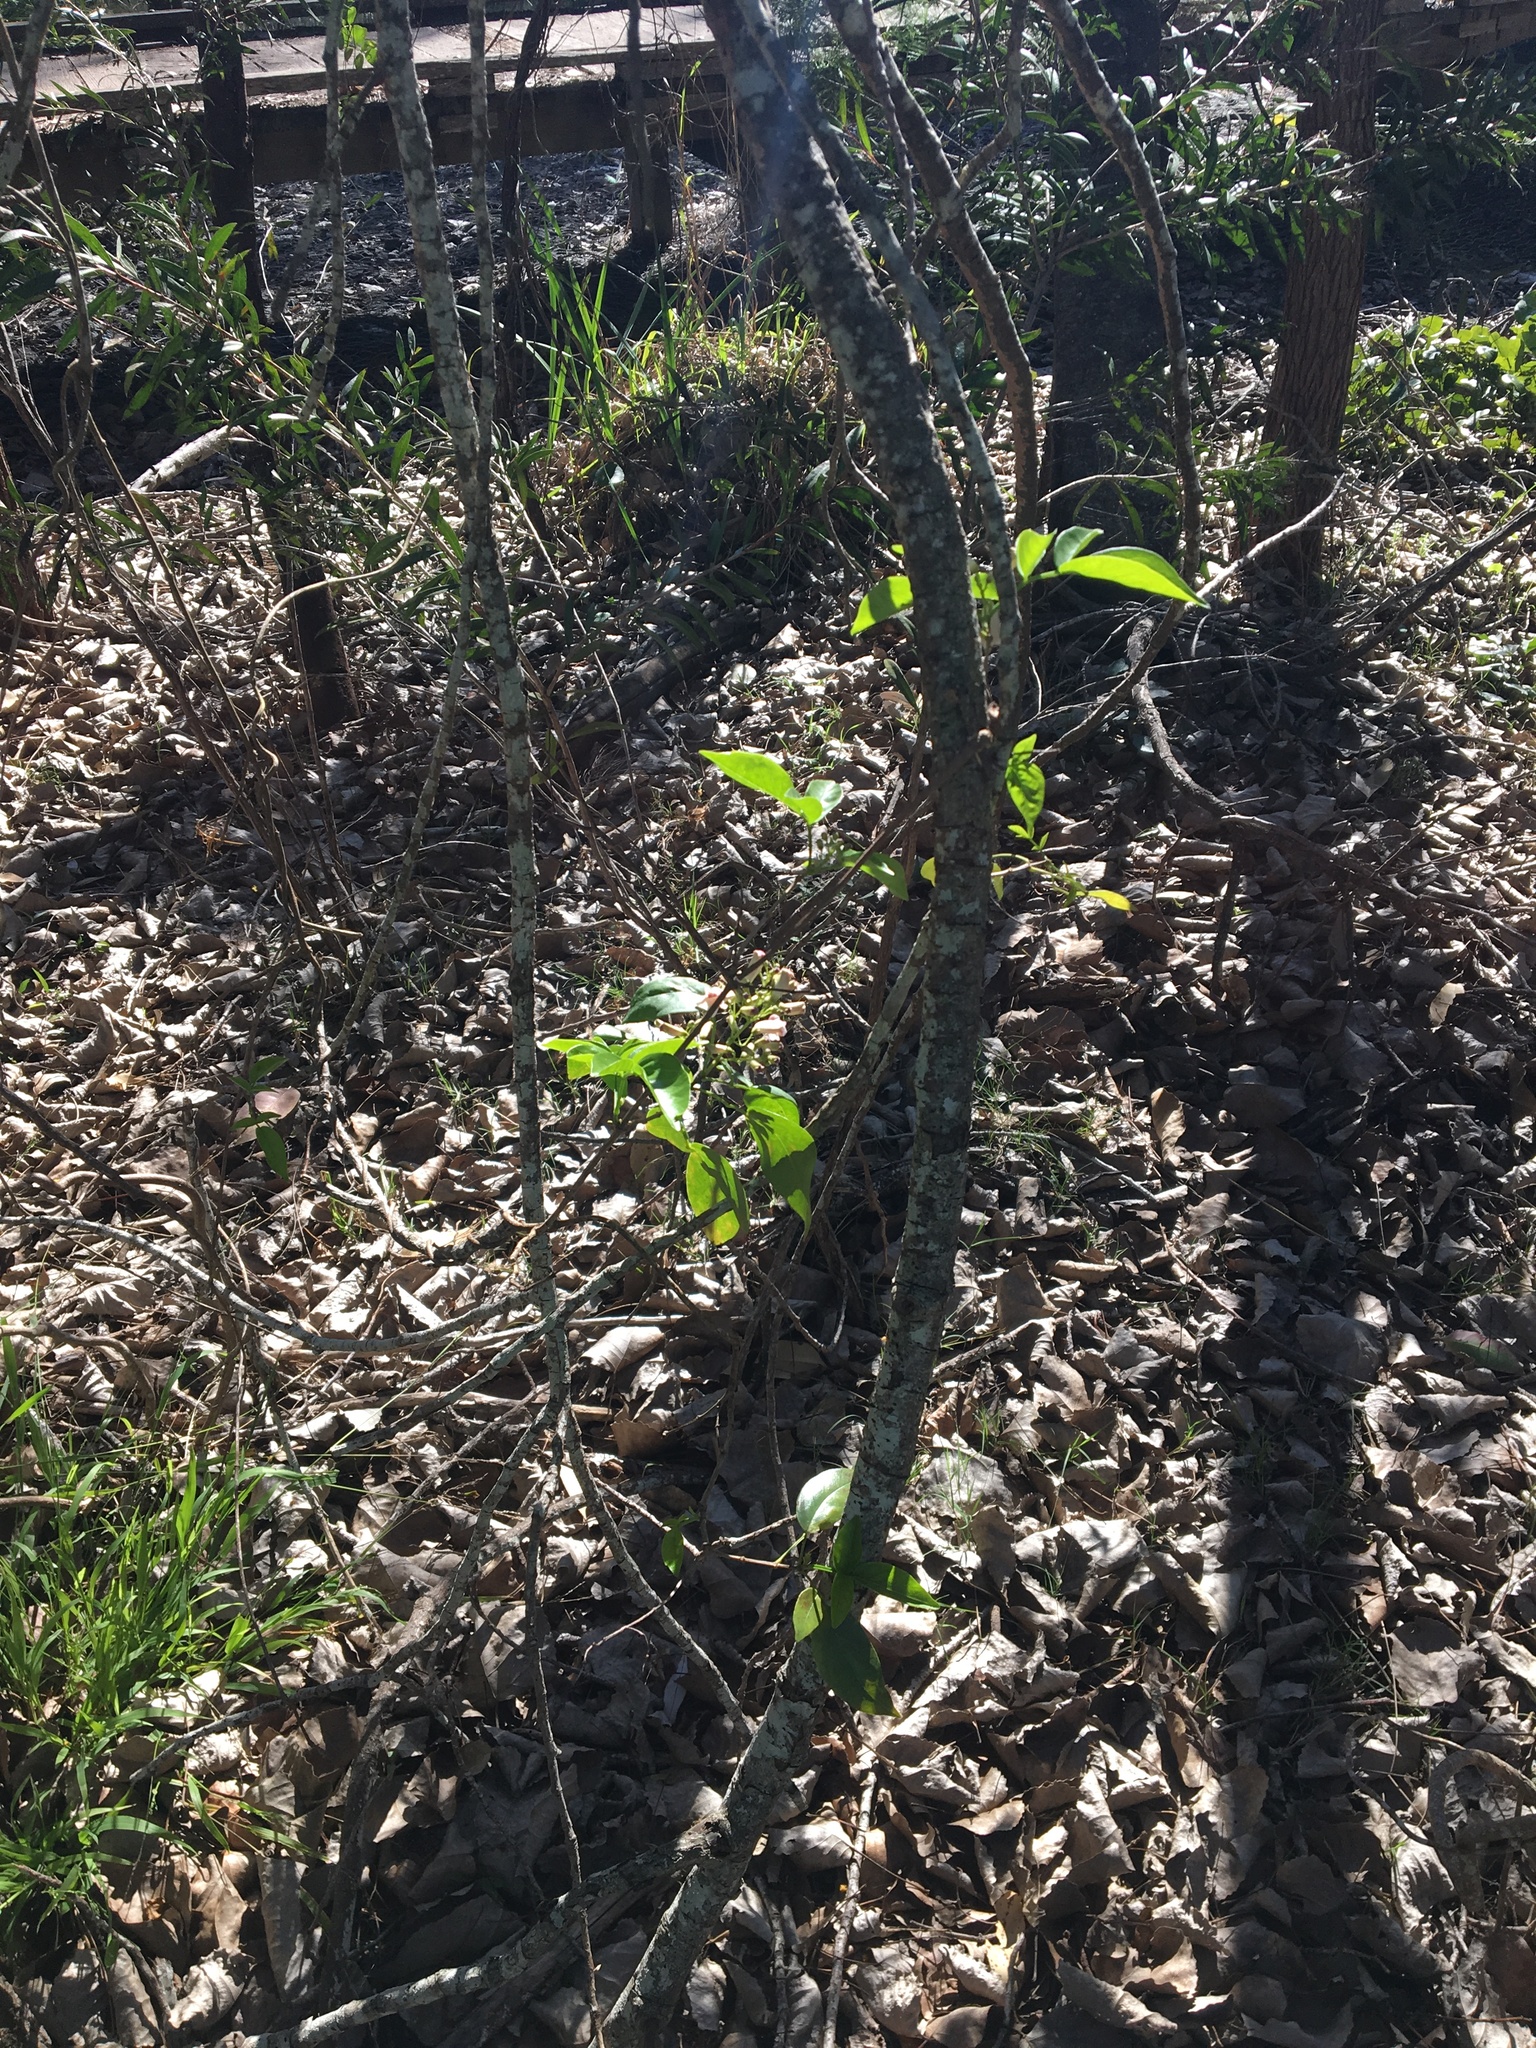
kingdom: Plantae
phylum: Tracheophyta
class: Magnoliopsida
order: Lamiales
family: Bignoniaceae
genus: Pandorea
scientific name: Pandorea pandorana
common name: Wonga-wonga-vine
